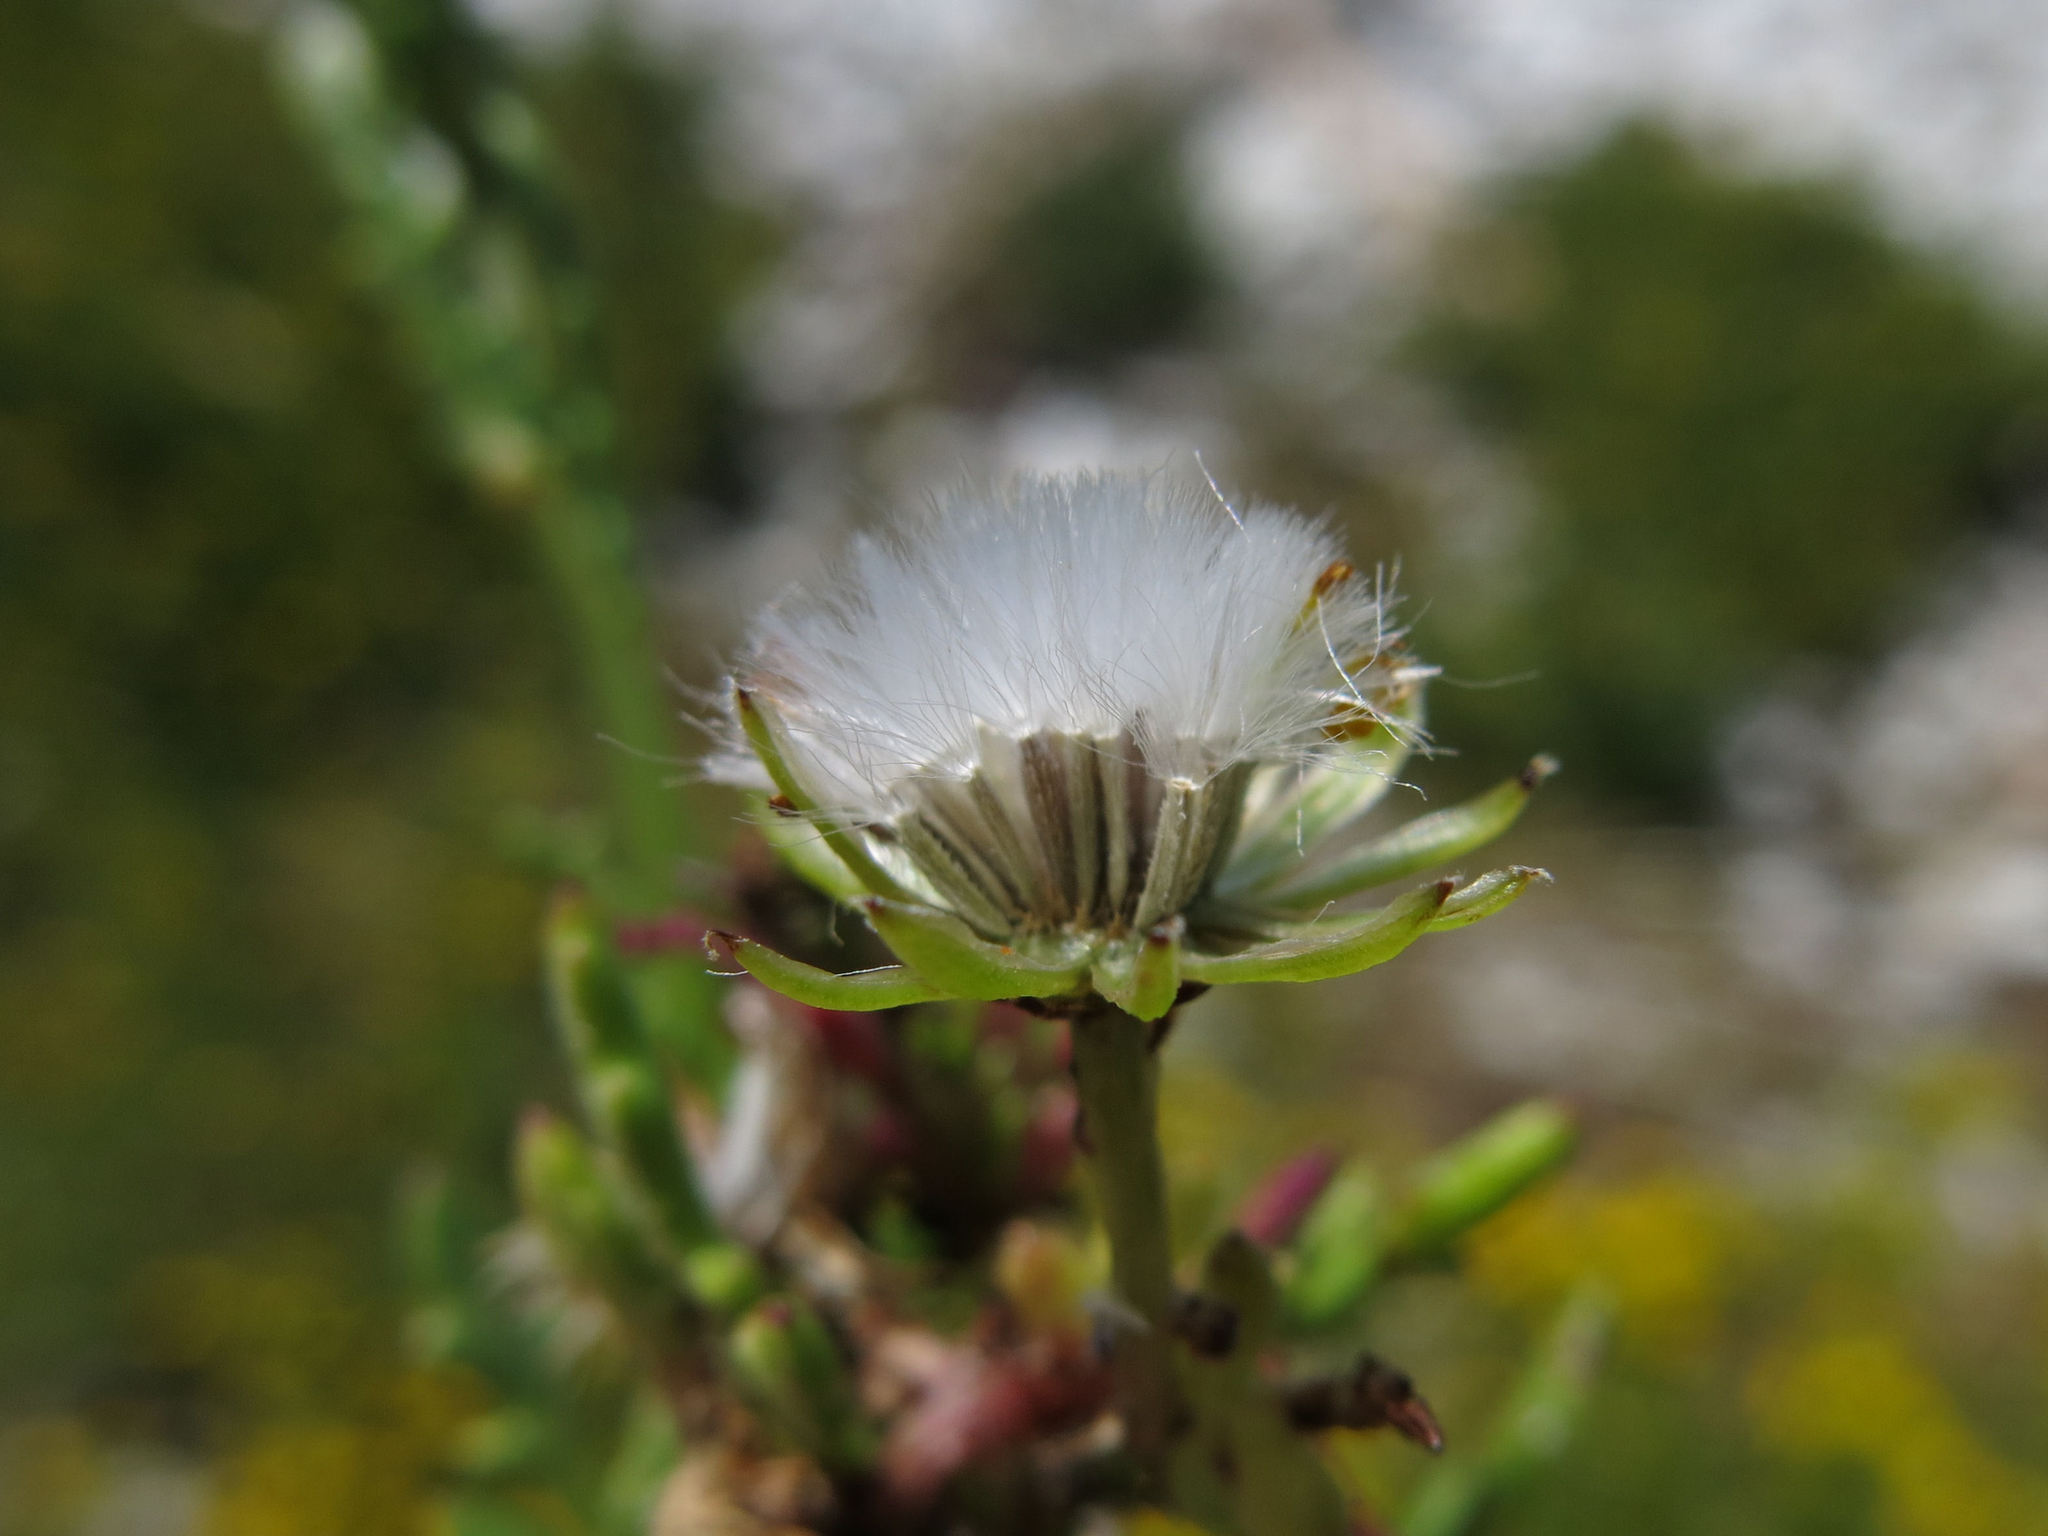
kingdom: Plantae
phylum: Tracheophyta
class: Magnoliopsida
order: Asterales
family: Asteraceae
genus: Senecio
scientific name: Senecio lautus
